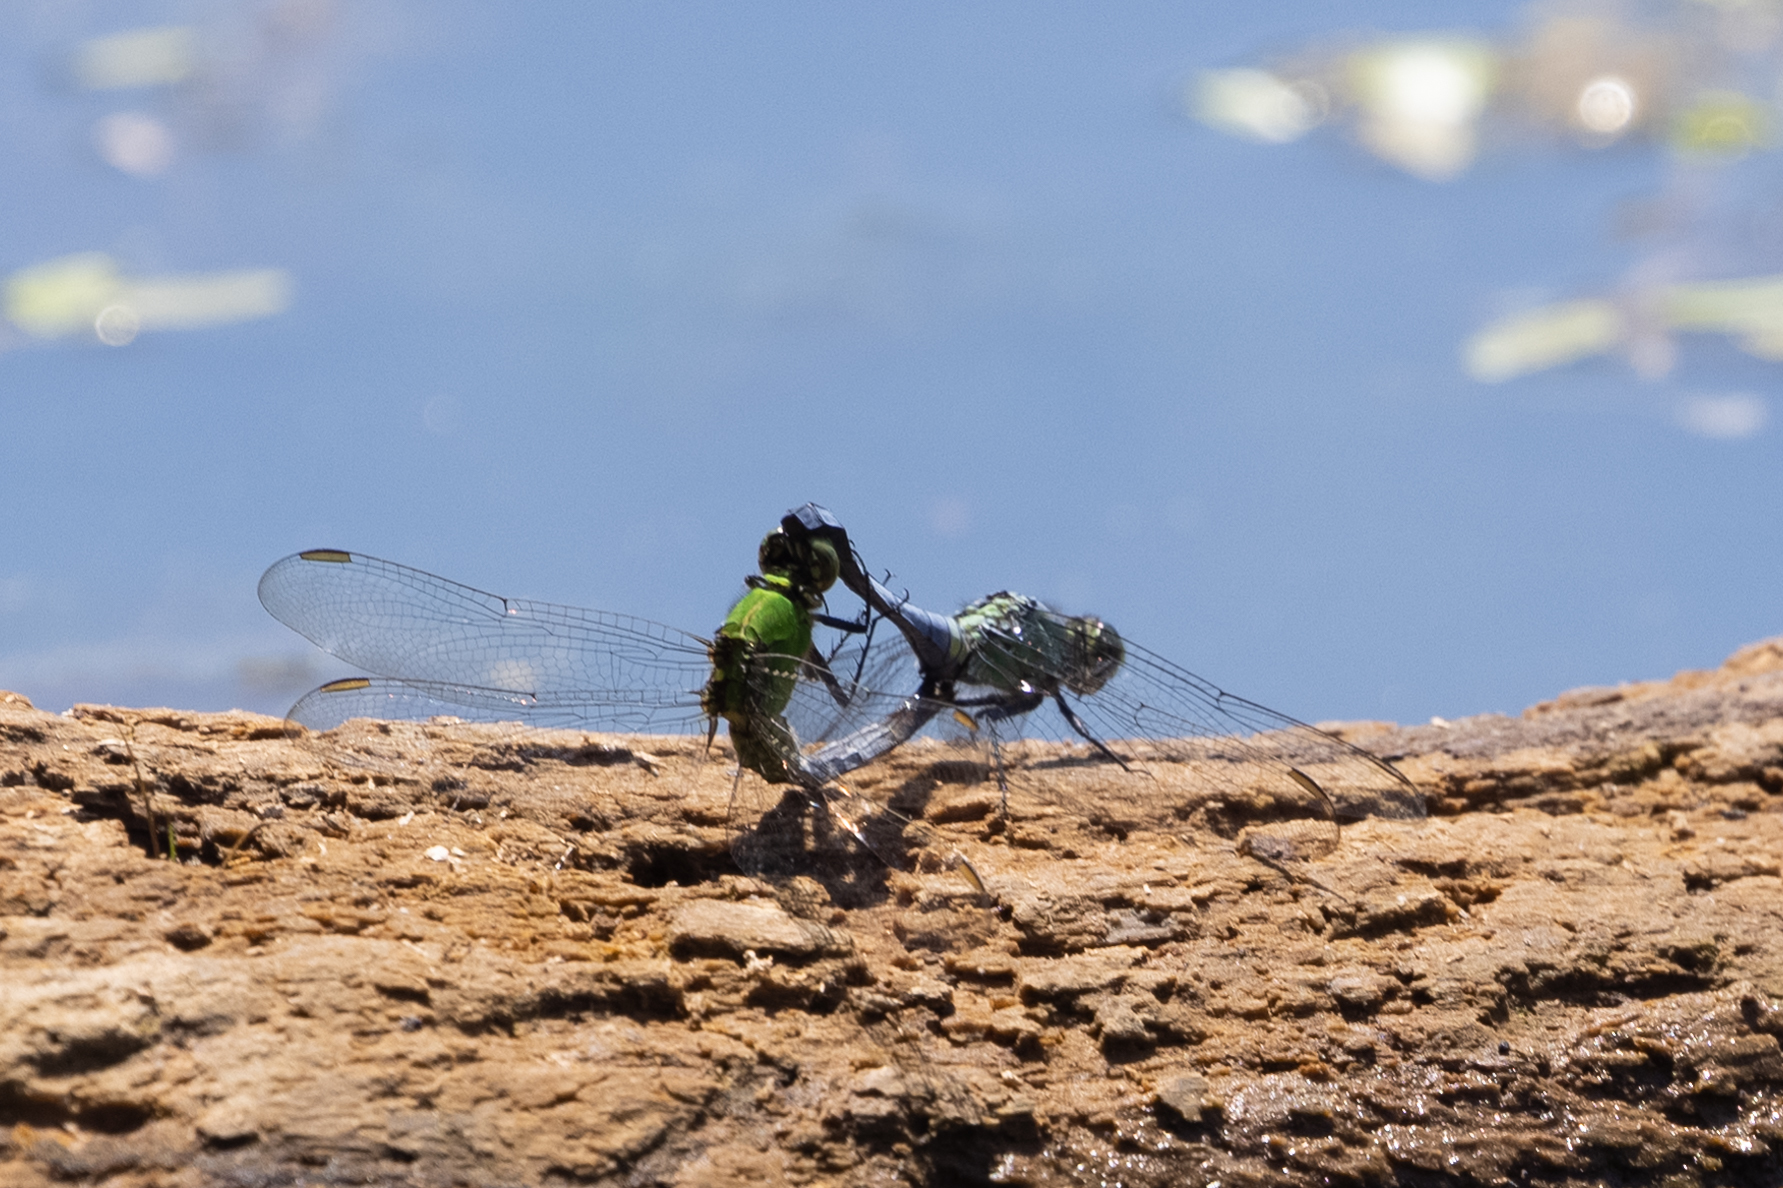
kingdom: Animalia
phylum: Arthropoda
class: Insecta
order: Odonata
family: Libellulidae
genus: Erythemis
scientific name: Erythemis simplicicollis
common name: Eastern pondhawk
